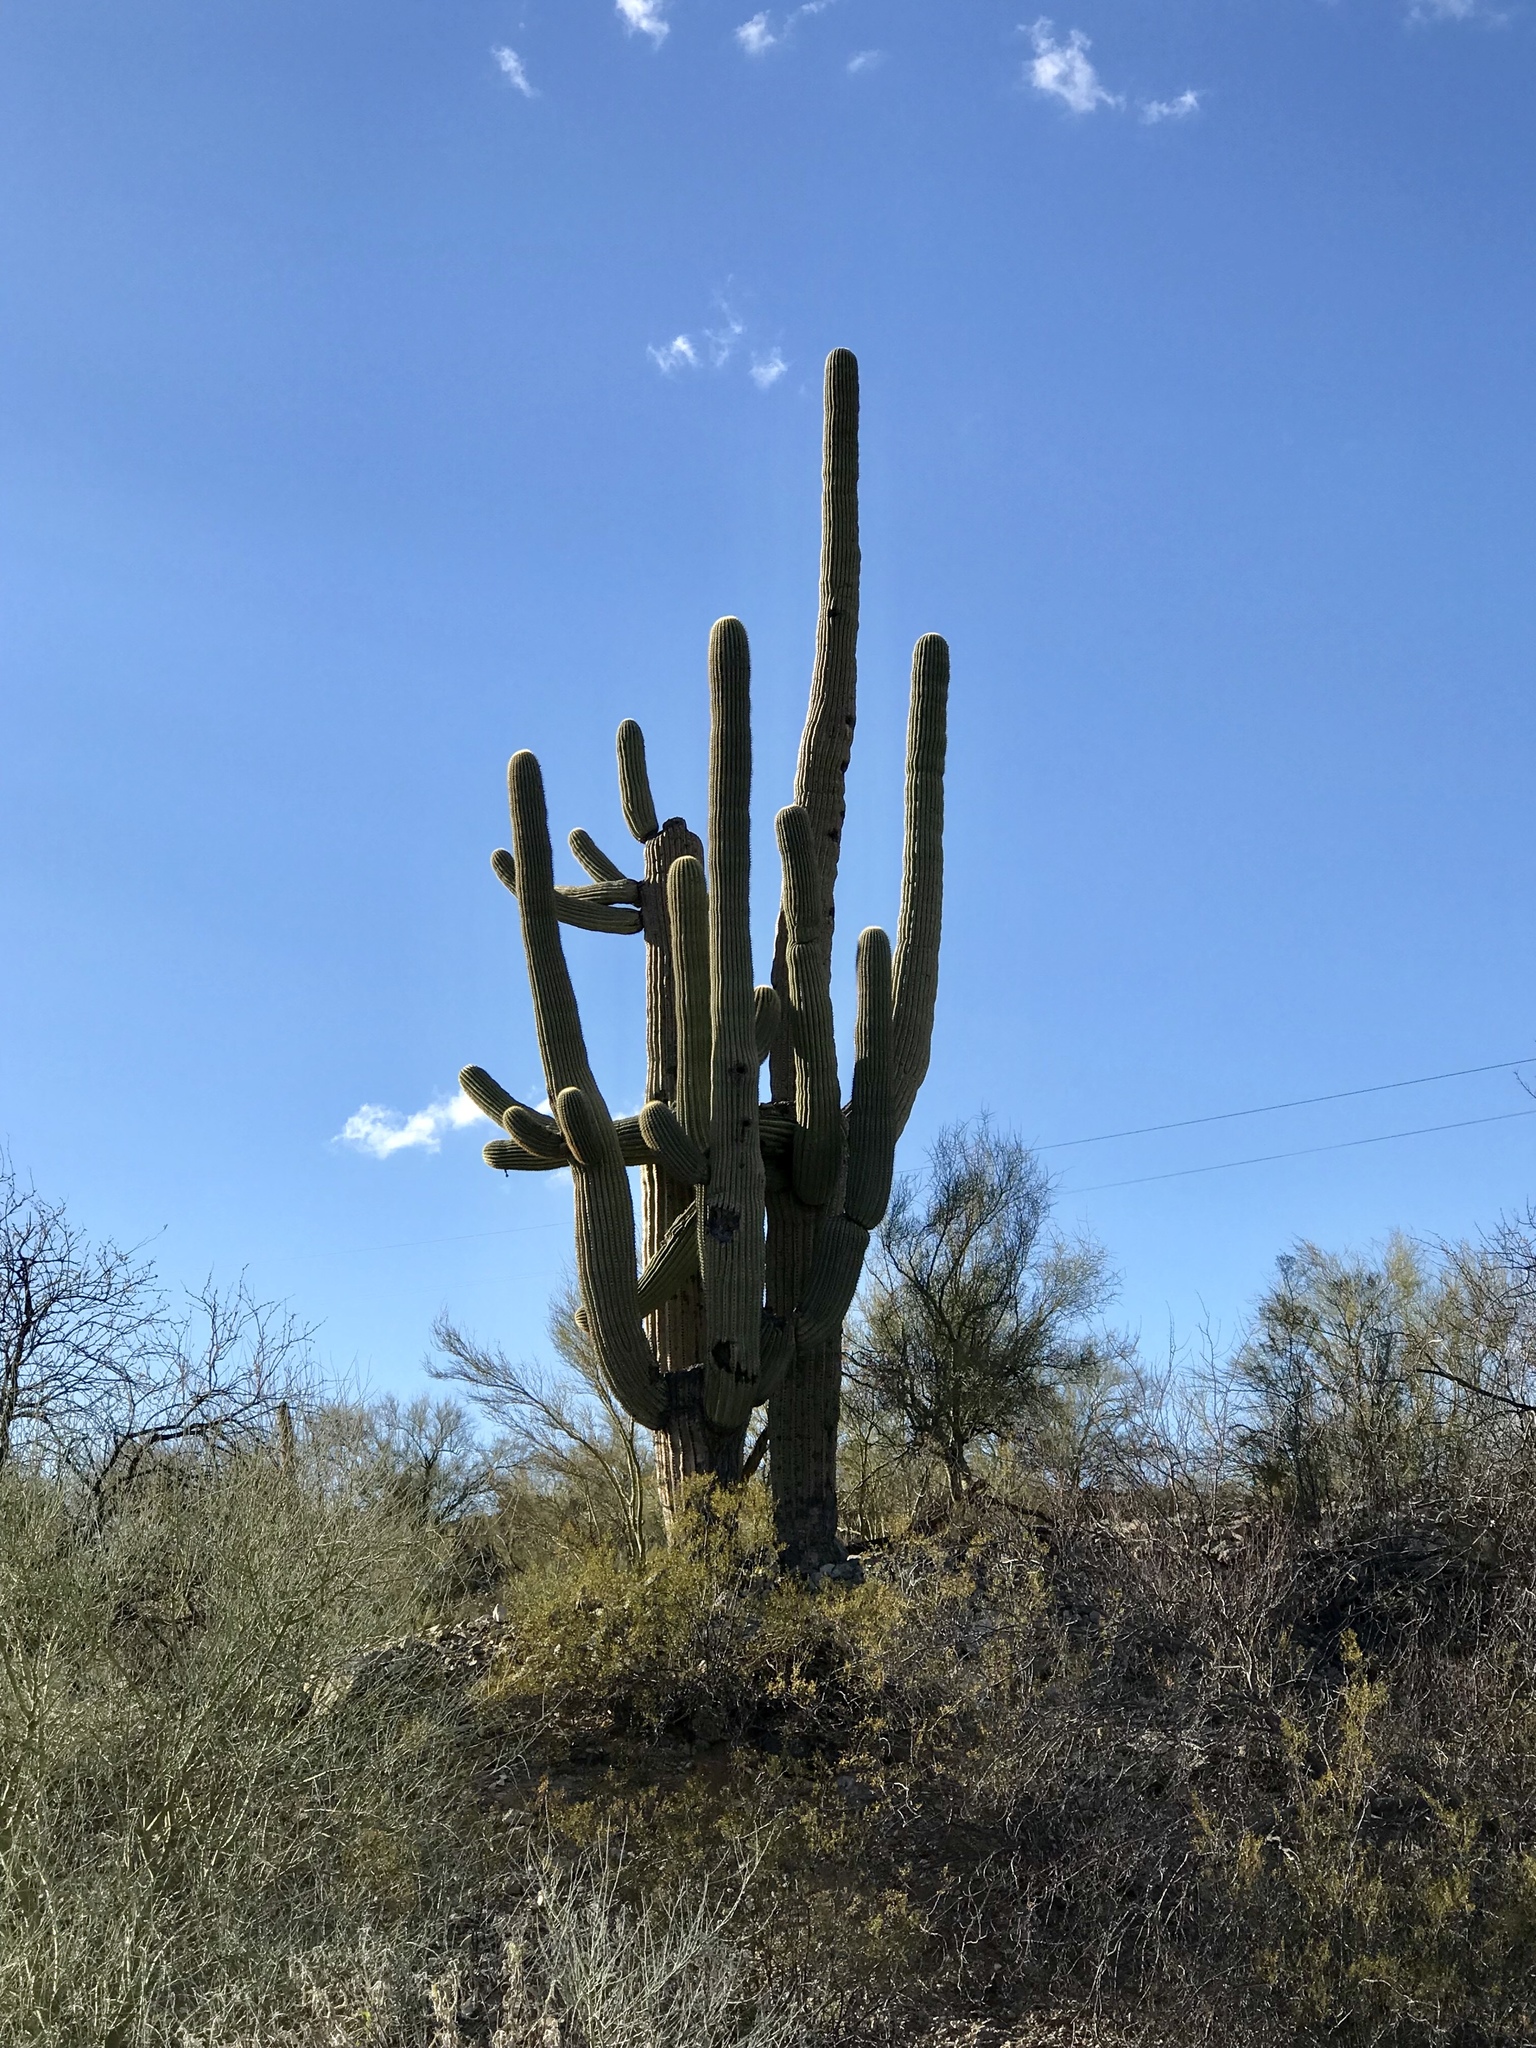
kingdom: Plantae
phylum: Tracheophyta
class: Magnoliopsida
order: Caryophyllales
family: Cactaceae
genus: Carnegiea
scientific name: Carnegiea gigantea
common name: Saguaro
